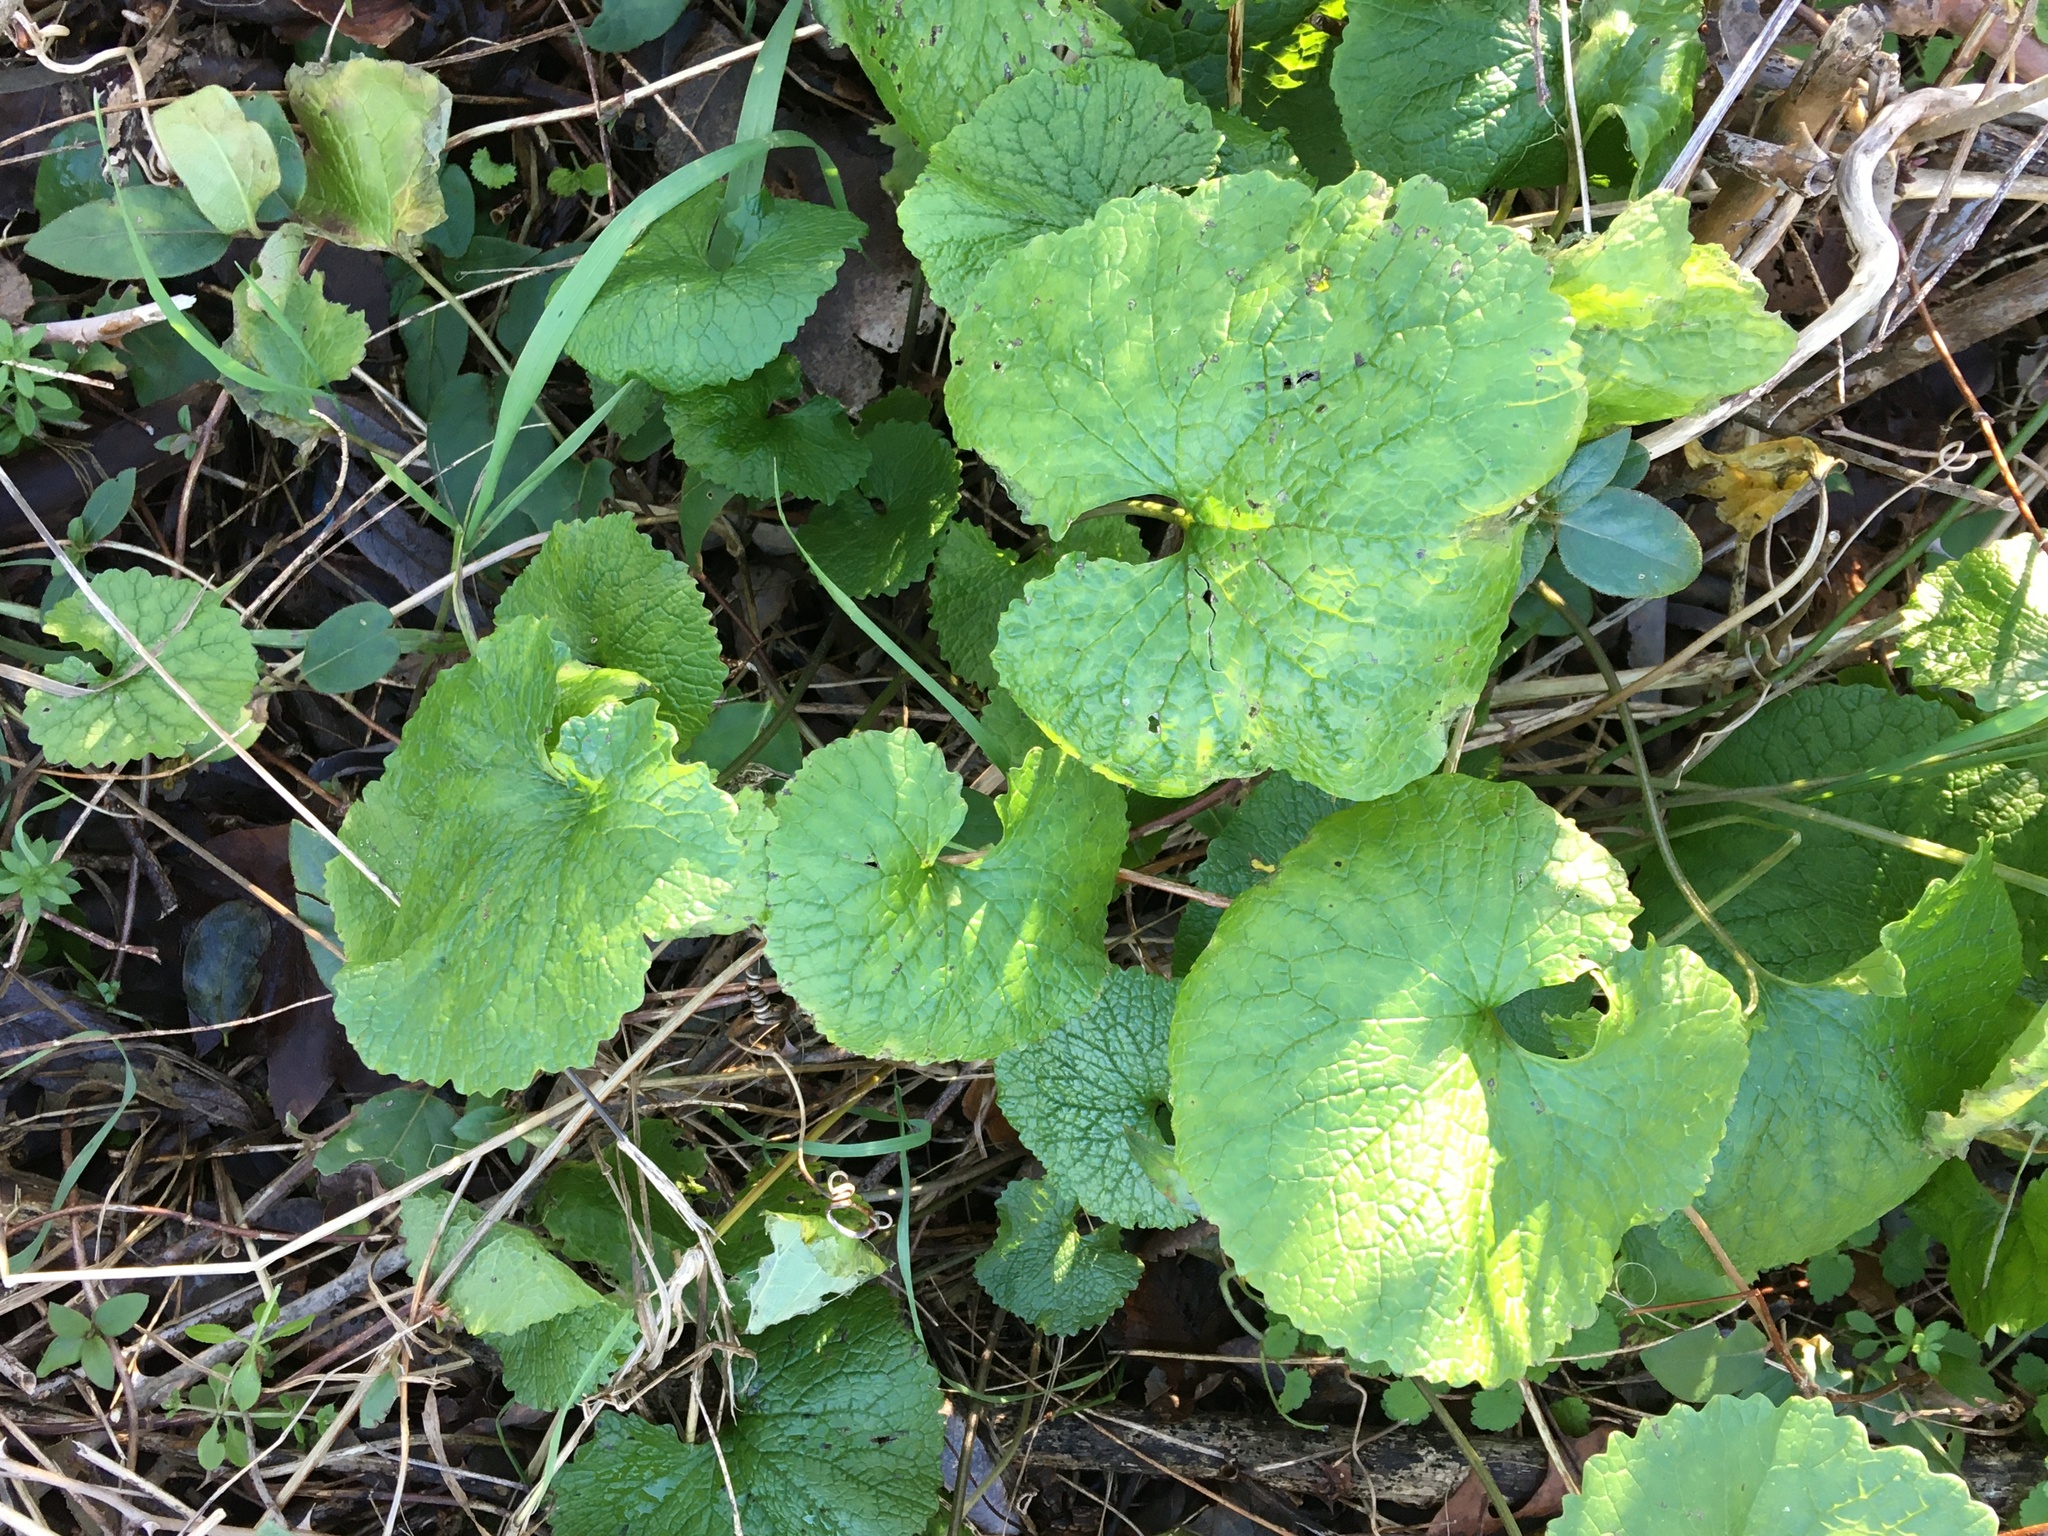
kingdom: Plantae
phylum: Tracheophyta
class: Magnoliopsida
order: Brassicales
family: Brassicaceae
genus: Alliaria
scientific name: Alliaria petiolata
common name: Garlic mustard
